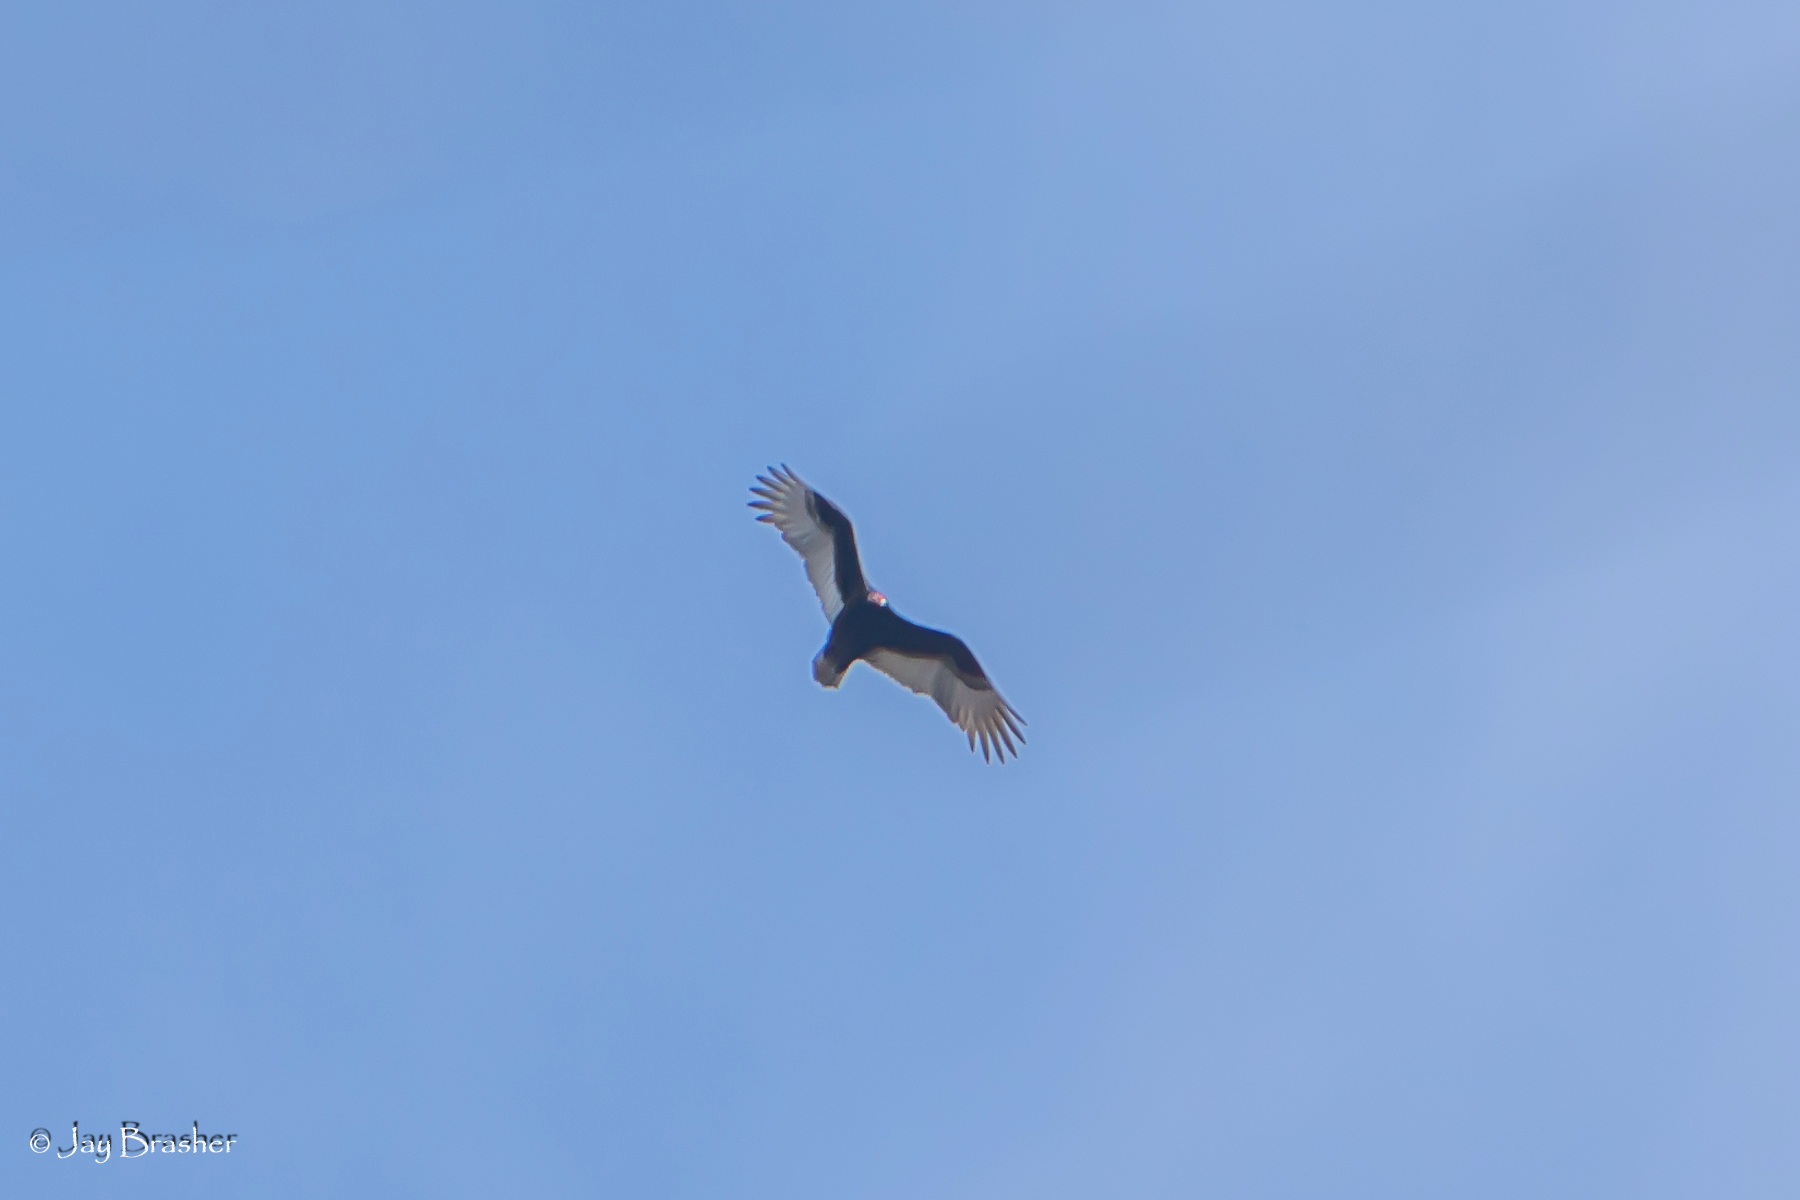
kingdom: Animalia
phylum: Chordata
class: Aves
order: Accipitriformes
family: Cathartidae
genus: Cathartes
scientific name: Cathartes aura
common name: Turkey vulture
